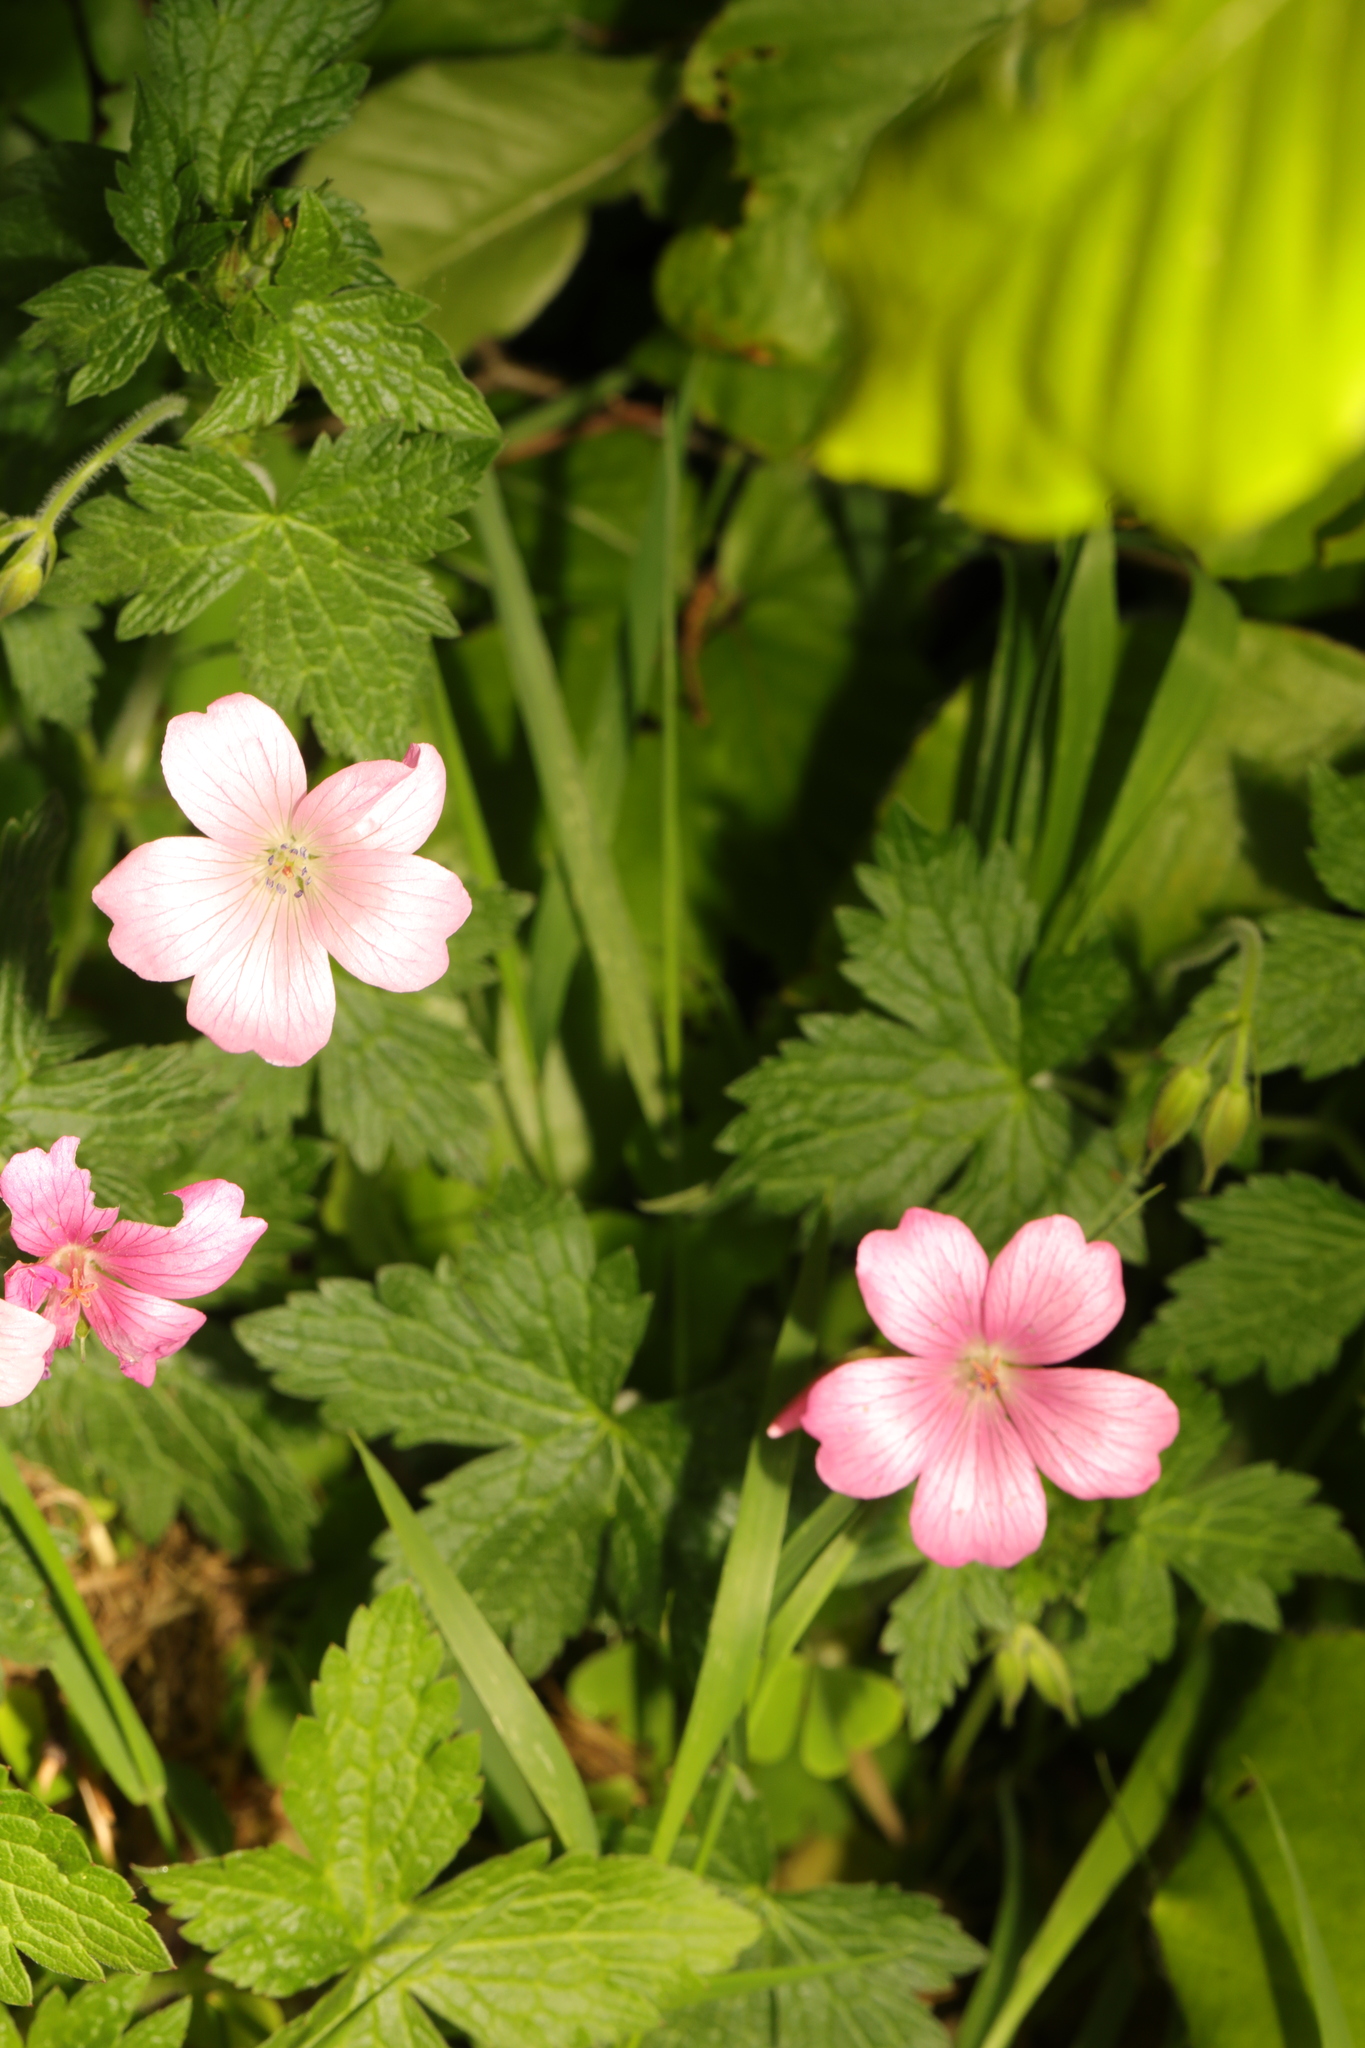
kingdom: Plantae
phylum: Tracheophyta
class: Magnoliopsida
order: Geraniales
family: Geraniaceae
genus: Geranium
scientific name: Geranium oxonianum
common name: Druce's crane's-bill
